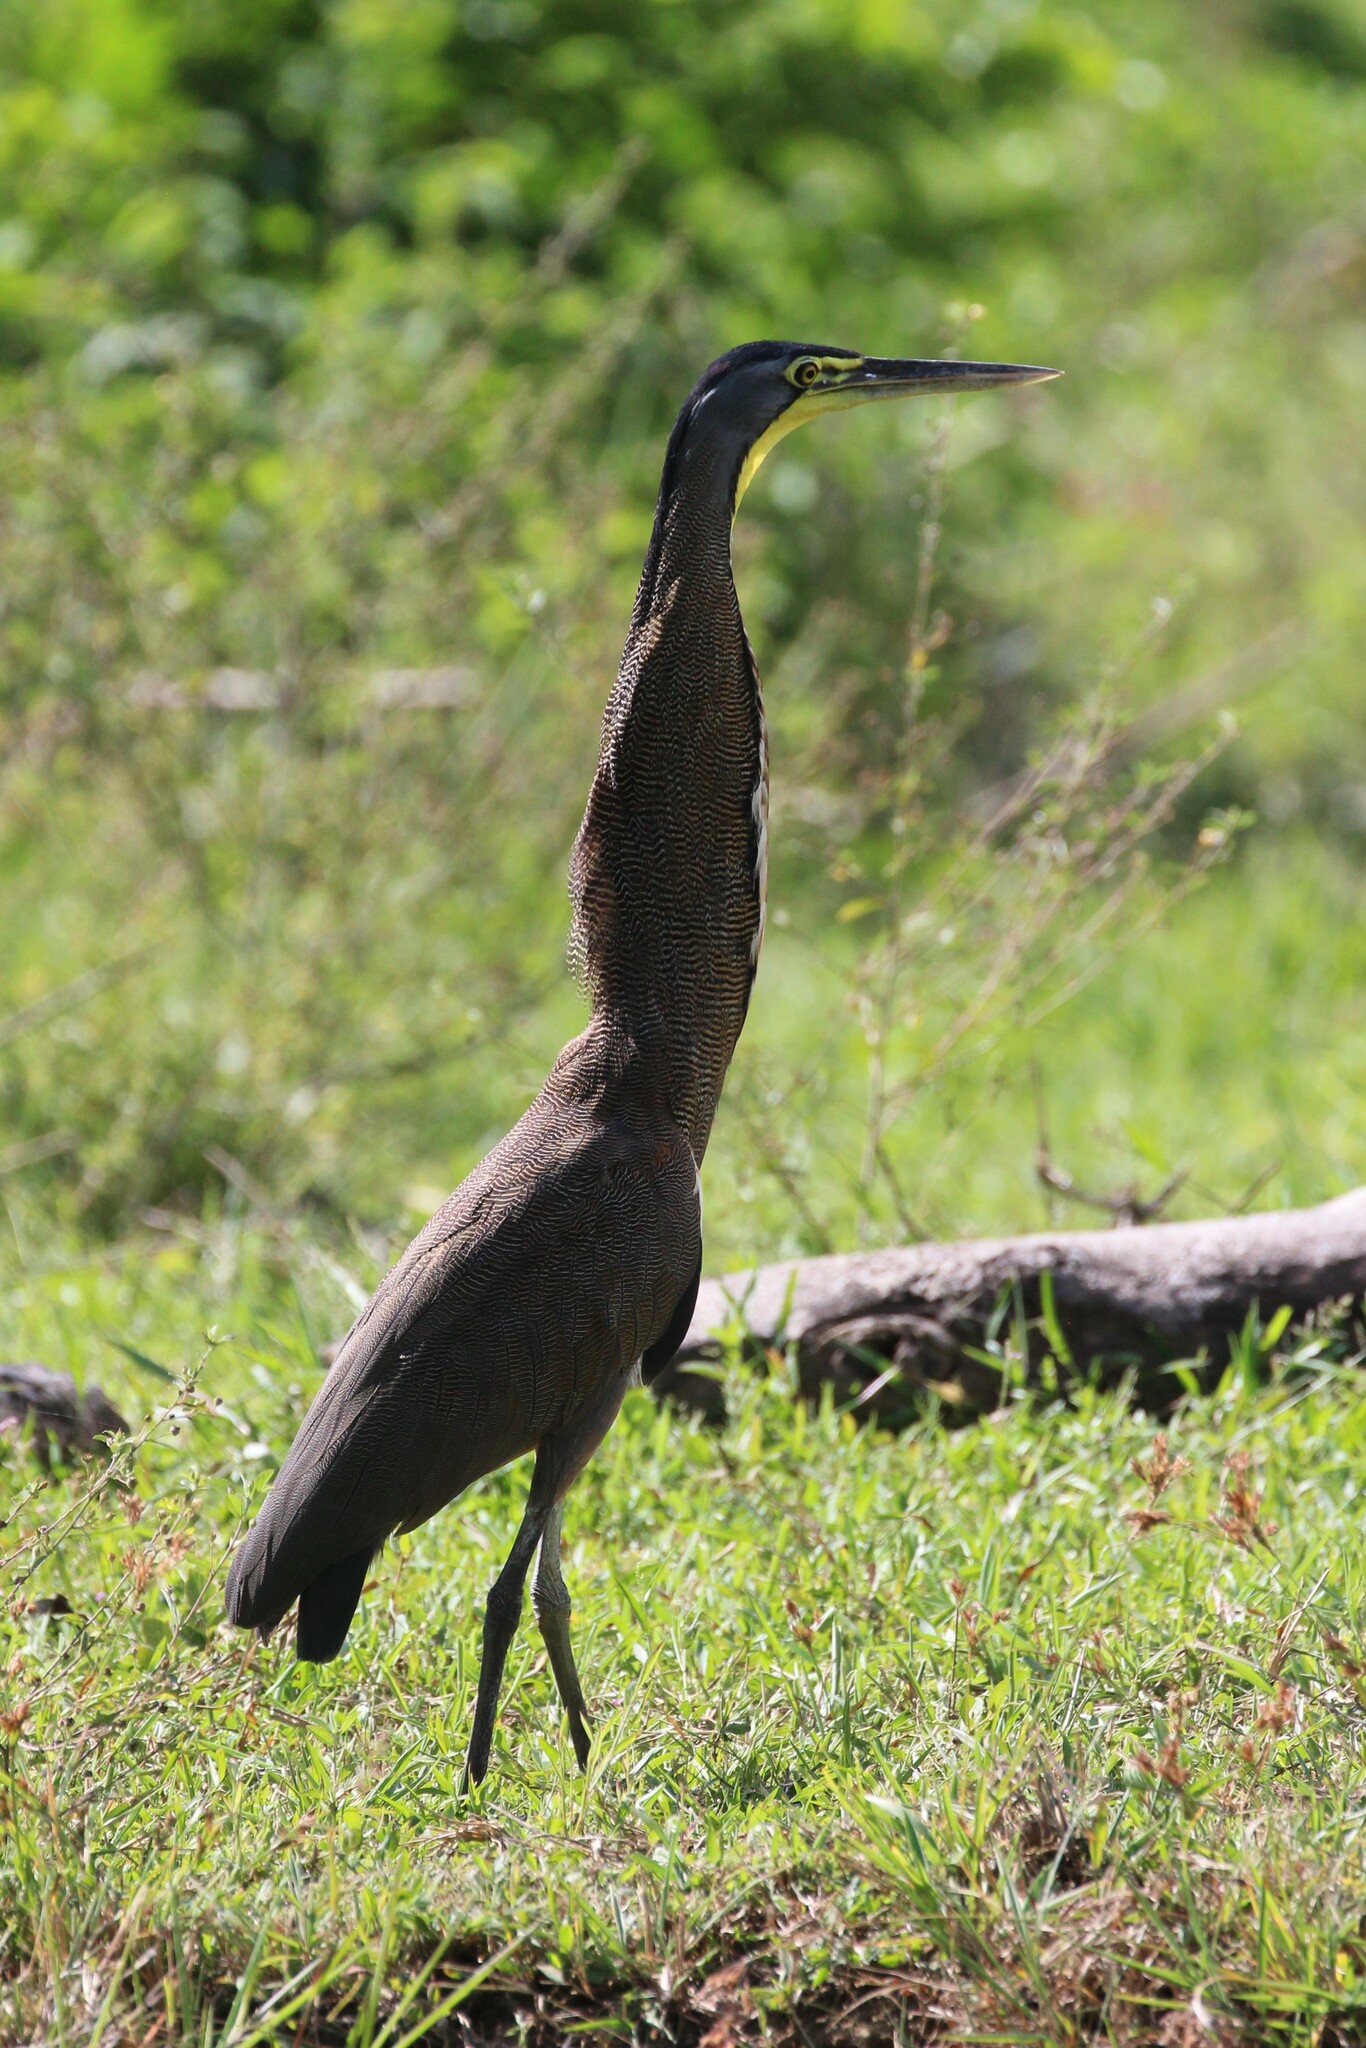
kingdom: Animalia
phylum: Chordata
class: Aves
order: Pelecaniformes
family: Ardeidae
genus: Tigrisoma
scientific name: Tigrisoma mexicanum
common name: Bare-throated tiger-heron
